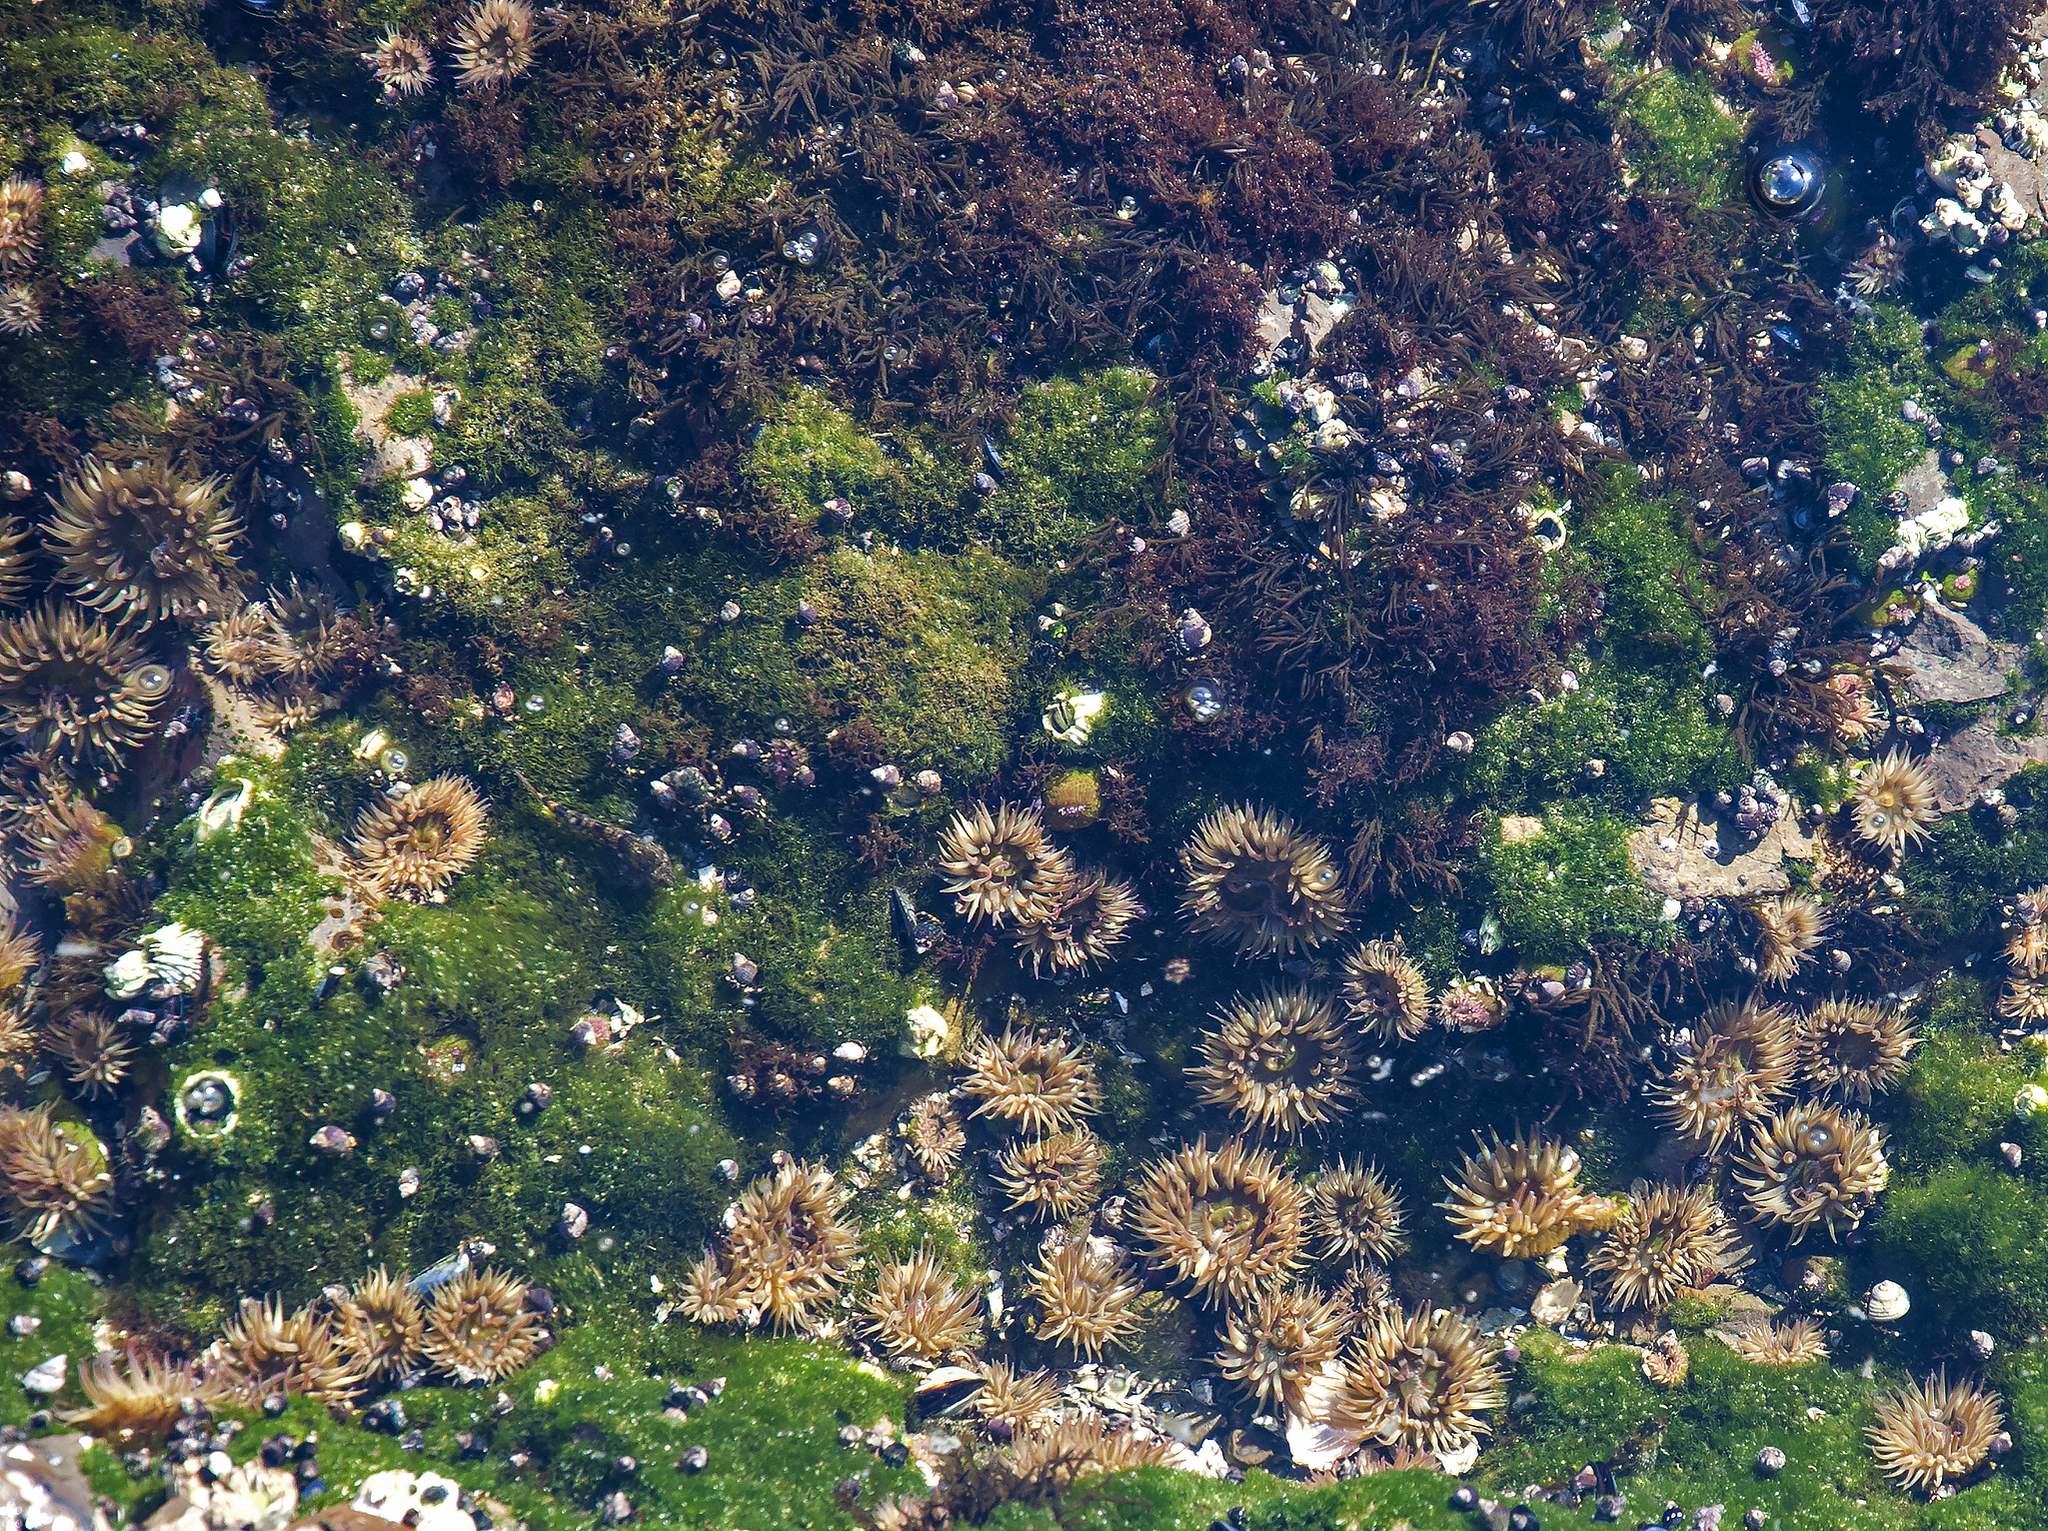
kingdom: Animalia
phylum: Cnidaria
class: Anthozoa
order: Actiniaria
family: Actiniidae
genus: Anthopleura
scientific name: Anthopleura elegantissima
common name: Clonal anemone
